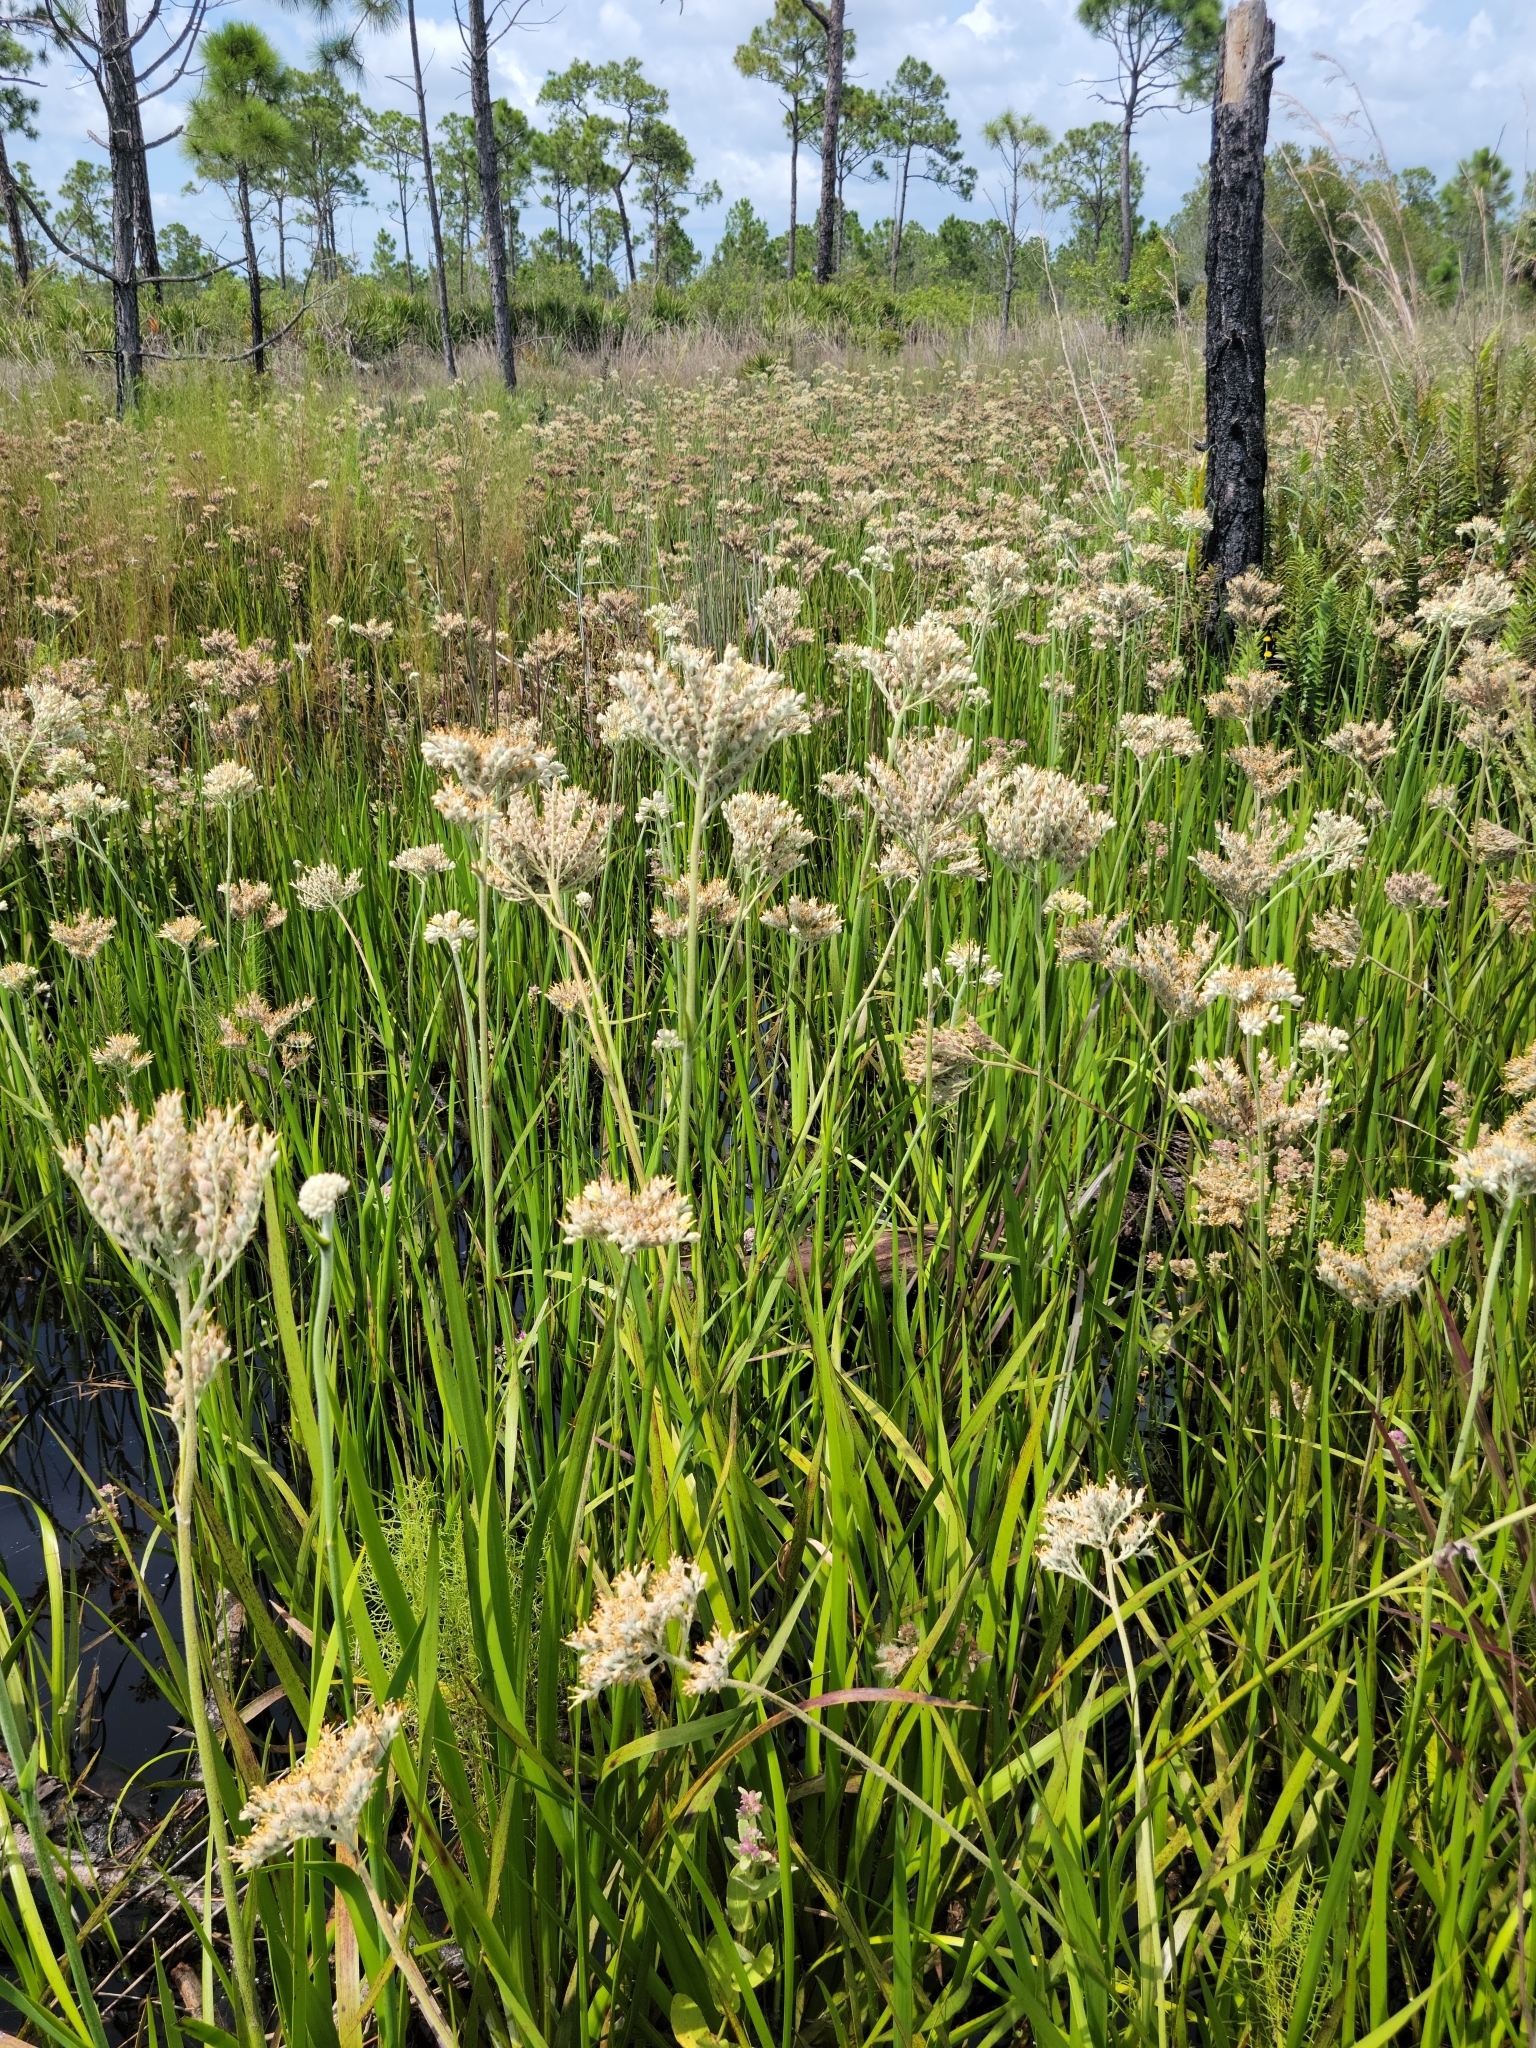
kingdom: Plantae
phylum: Tracheophyta
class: Liliopsida
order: Commelinales
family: Haemodoraceae
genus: Lachnanthes
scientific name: Lachnanthes caroliana
